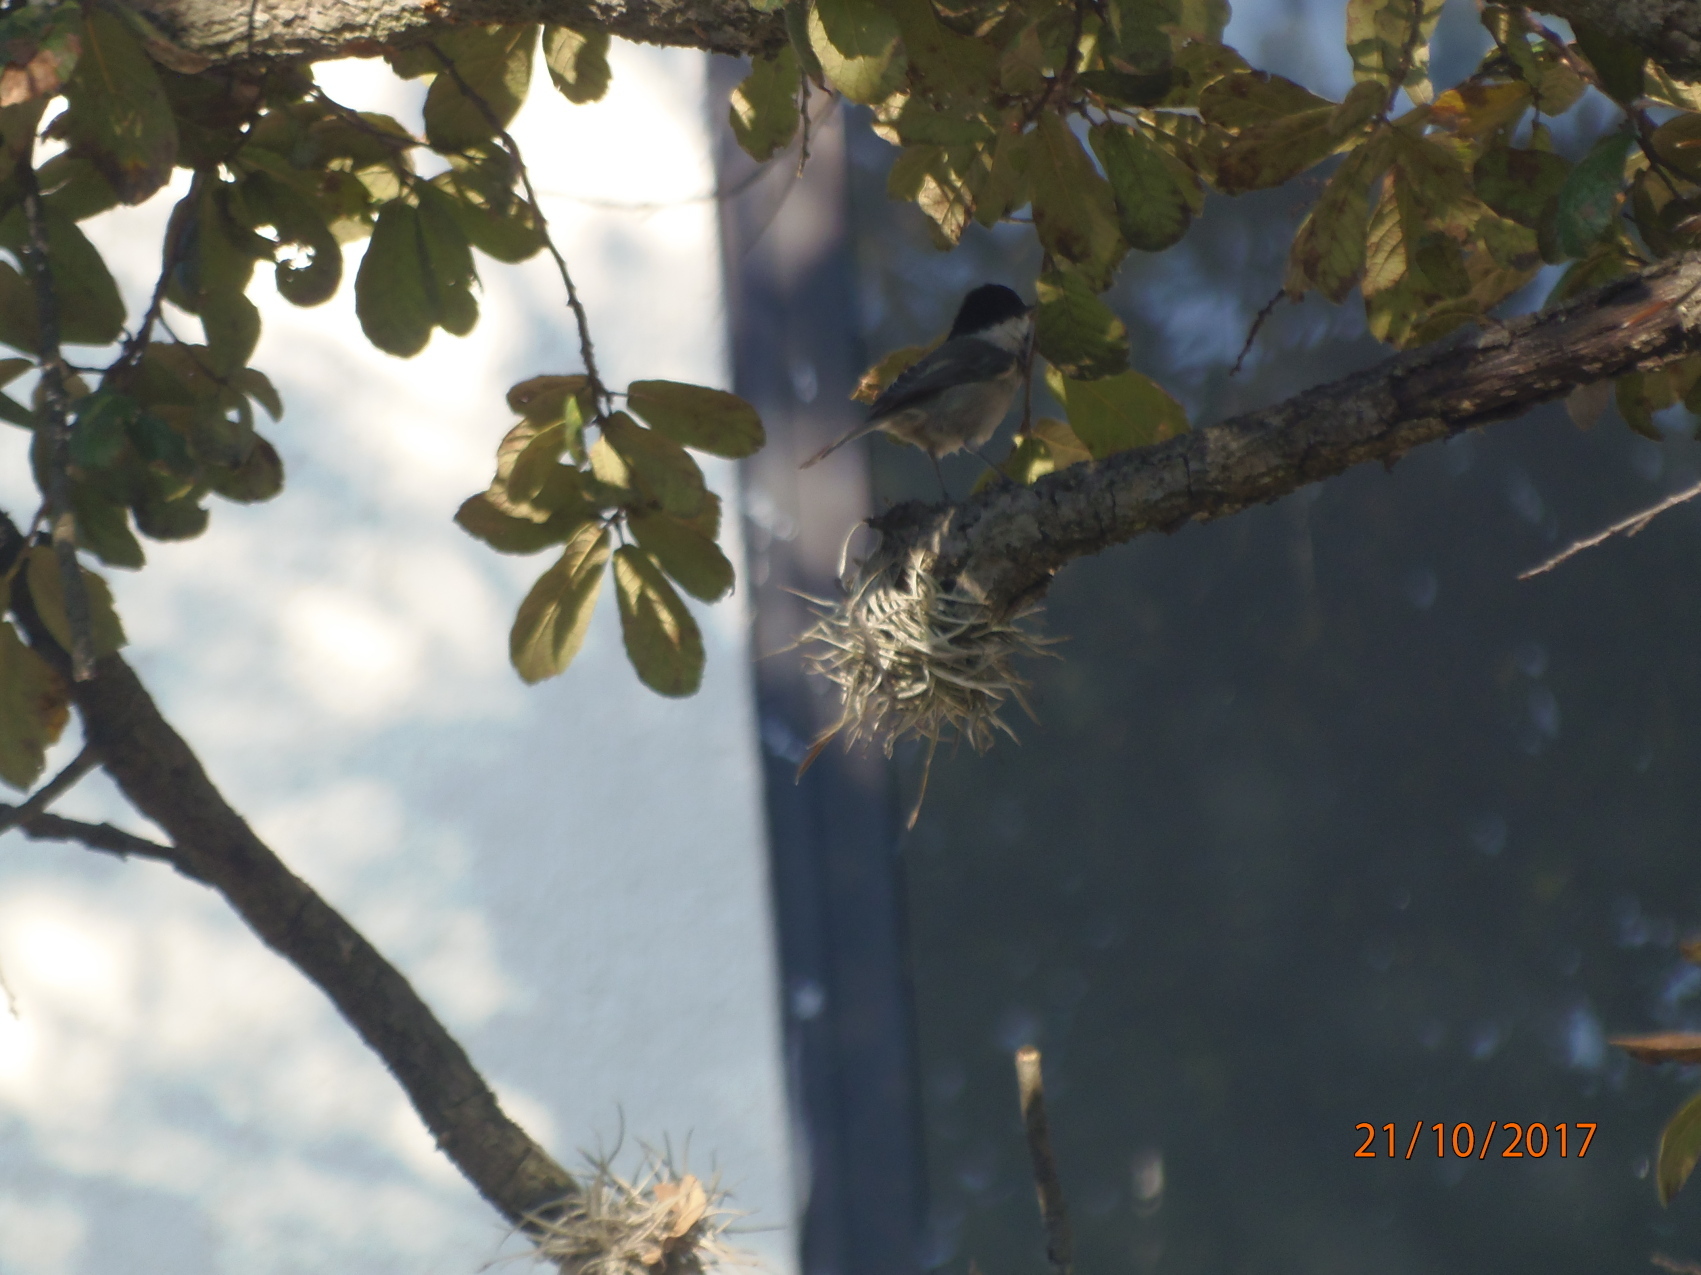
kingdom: Animalia
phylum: Chordata
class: Aves
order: Passeriformes
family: Paridae
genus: Poecile
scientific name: Poecile sclateri
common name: Mexican chickadee
